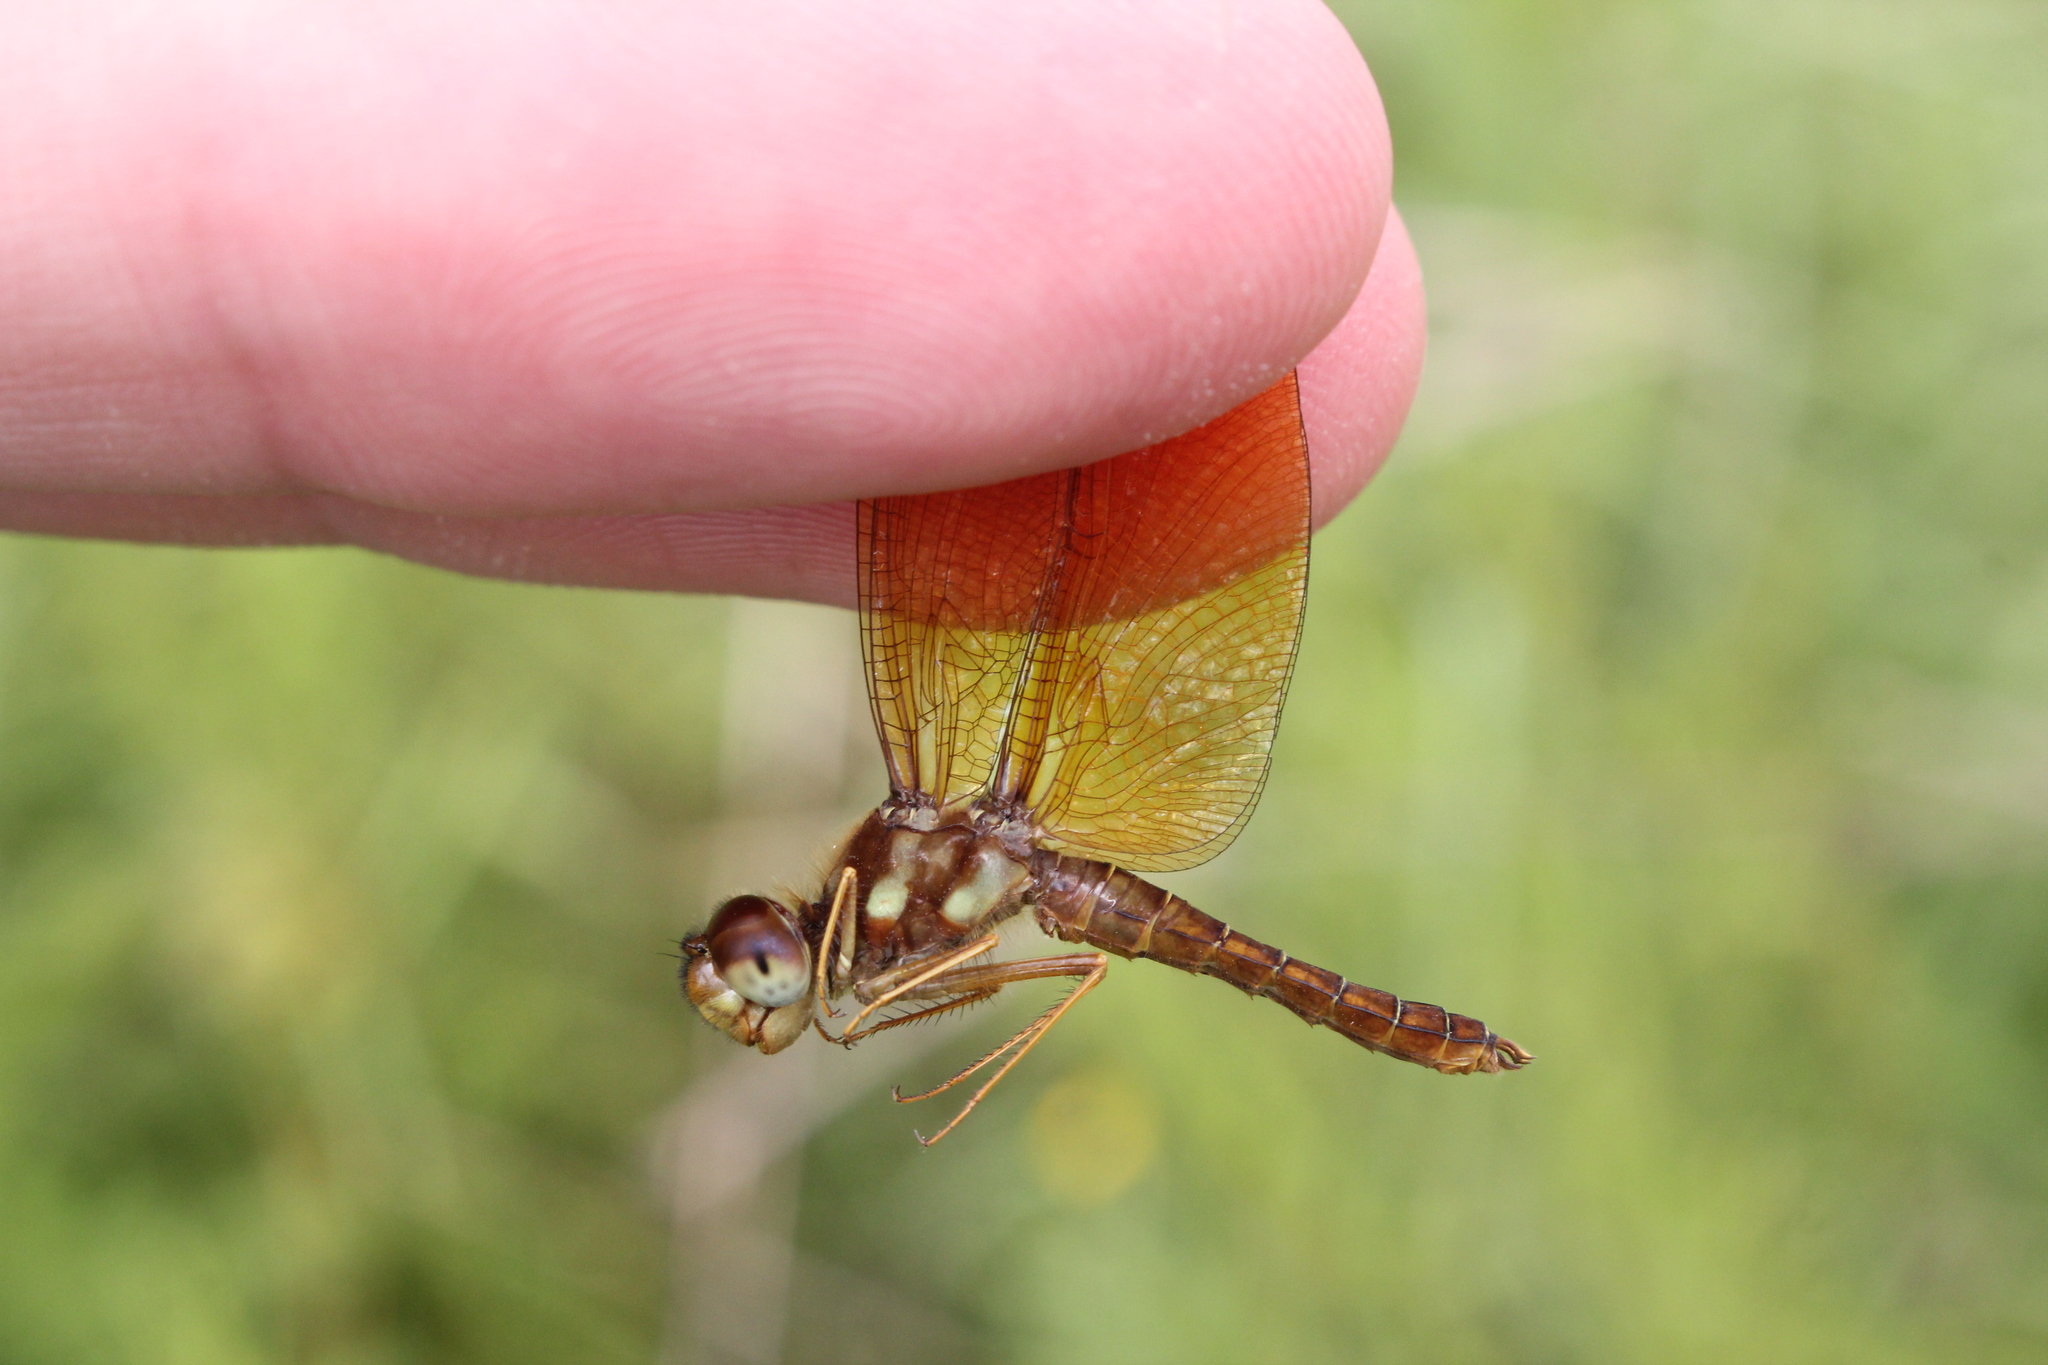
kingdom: Animalia
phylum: Arthropoda
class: Insecta
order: Odonata
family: Libellulidae
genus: Perithemis
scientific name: Perithemis tenera
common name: Eastern amberwing
